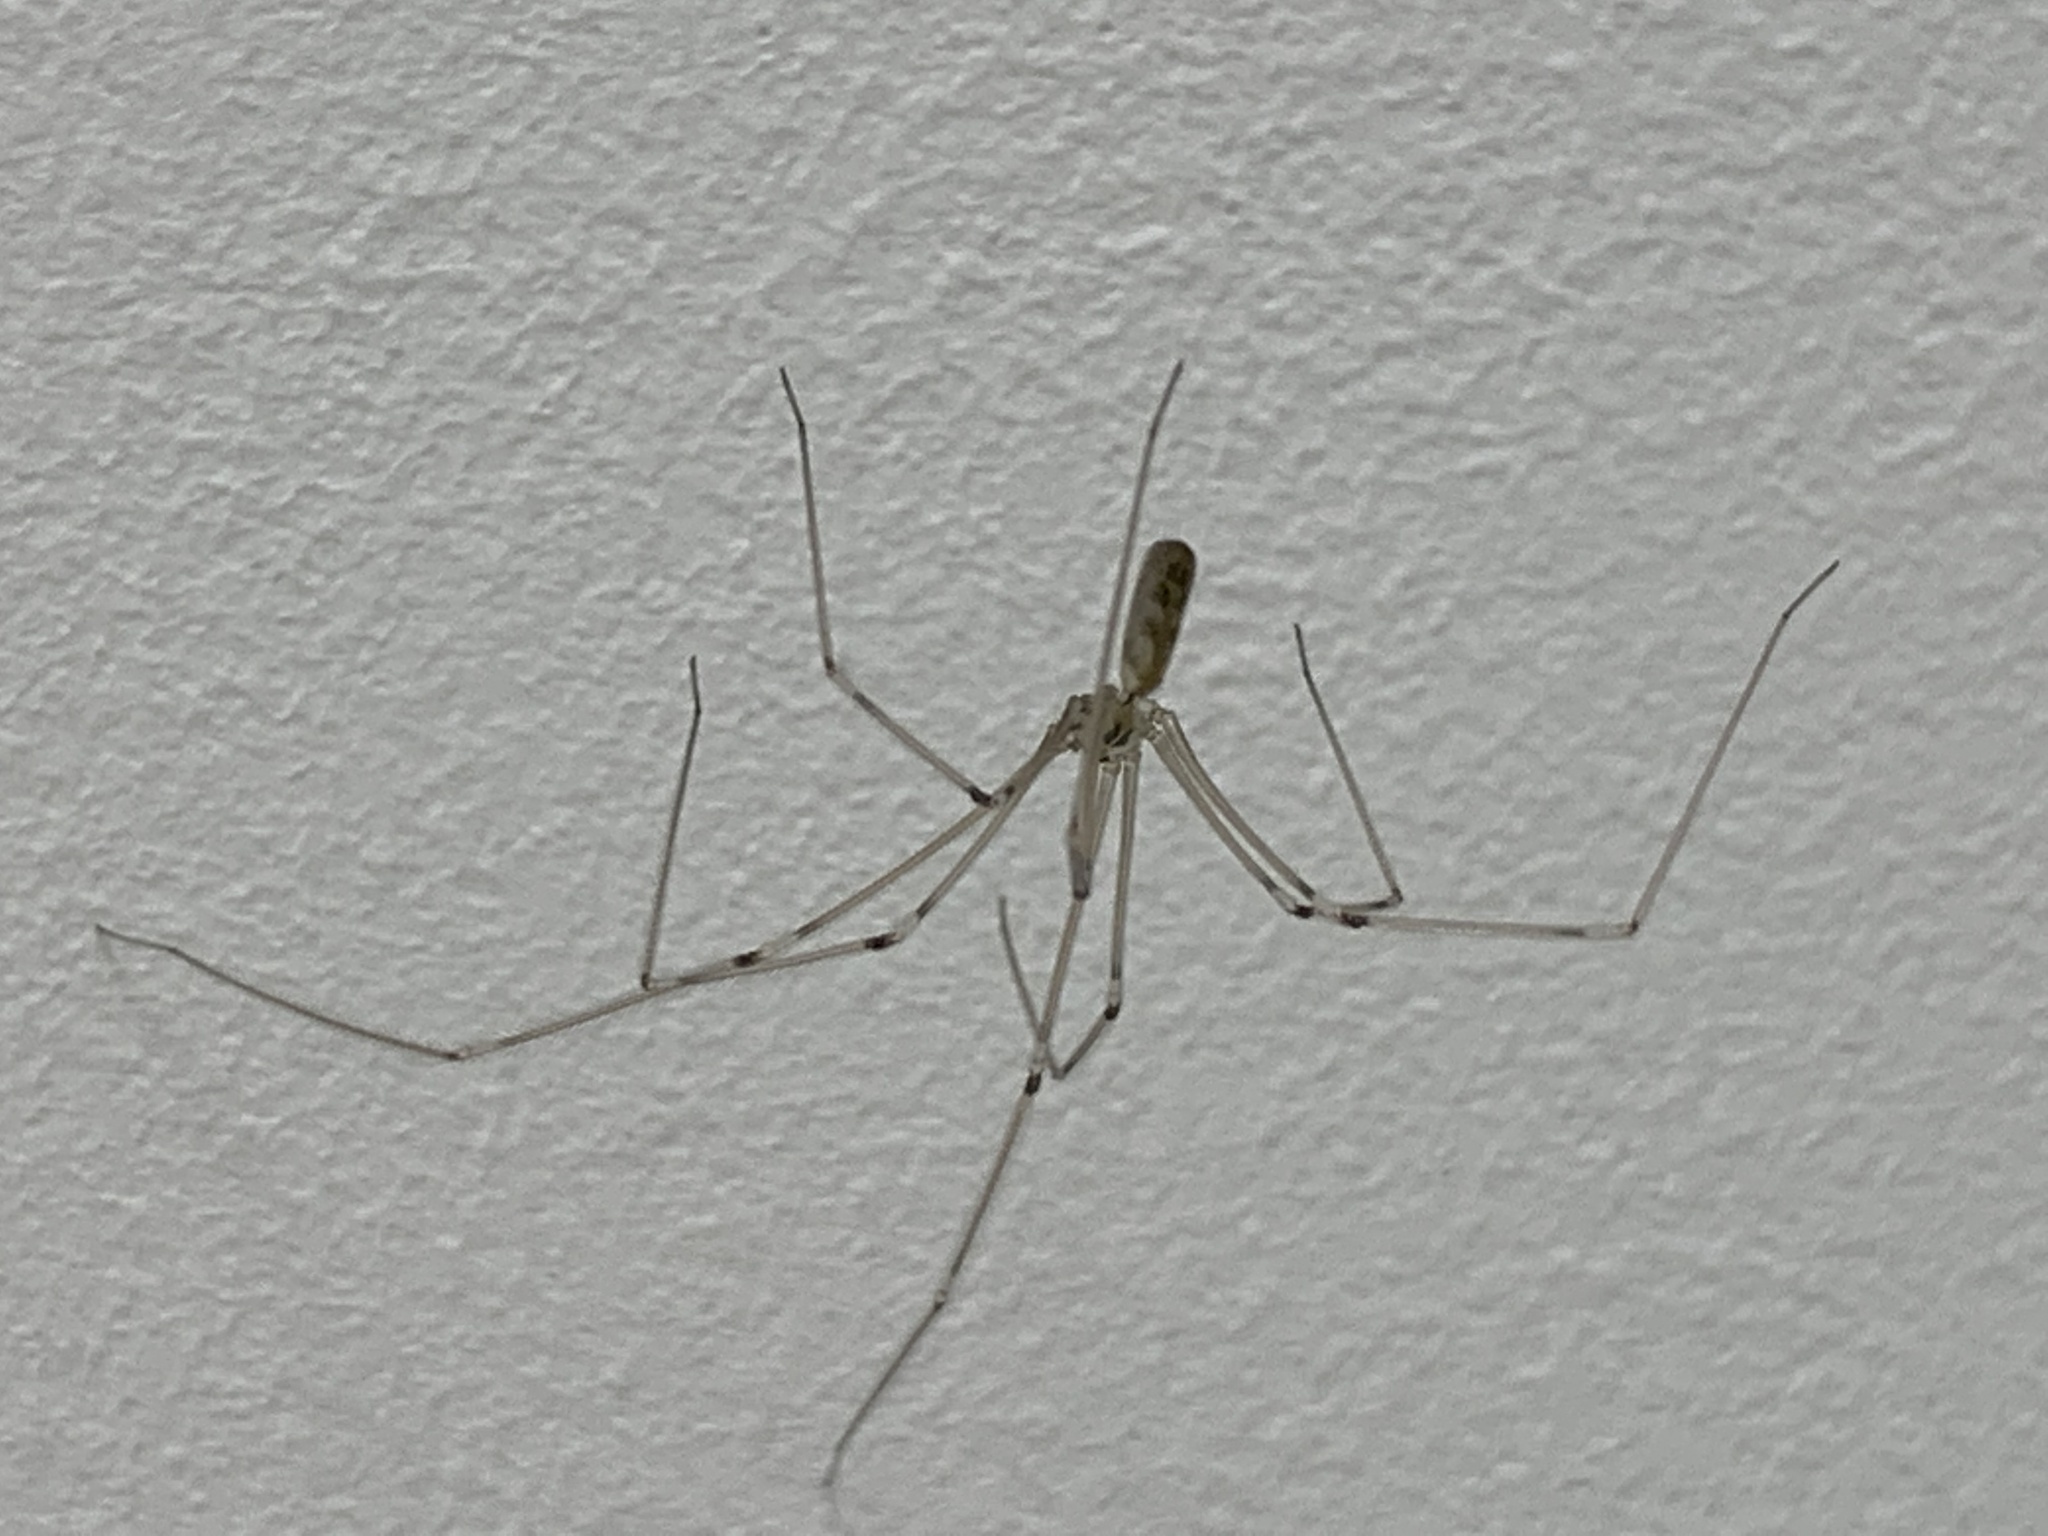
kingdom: Animalia
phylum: Arthropoda
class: Arachnida
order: Araneae
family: Pholcidae
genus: Pholcus
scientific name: Pholcus phalangioides
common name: Longbodied cellar spider
